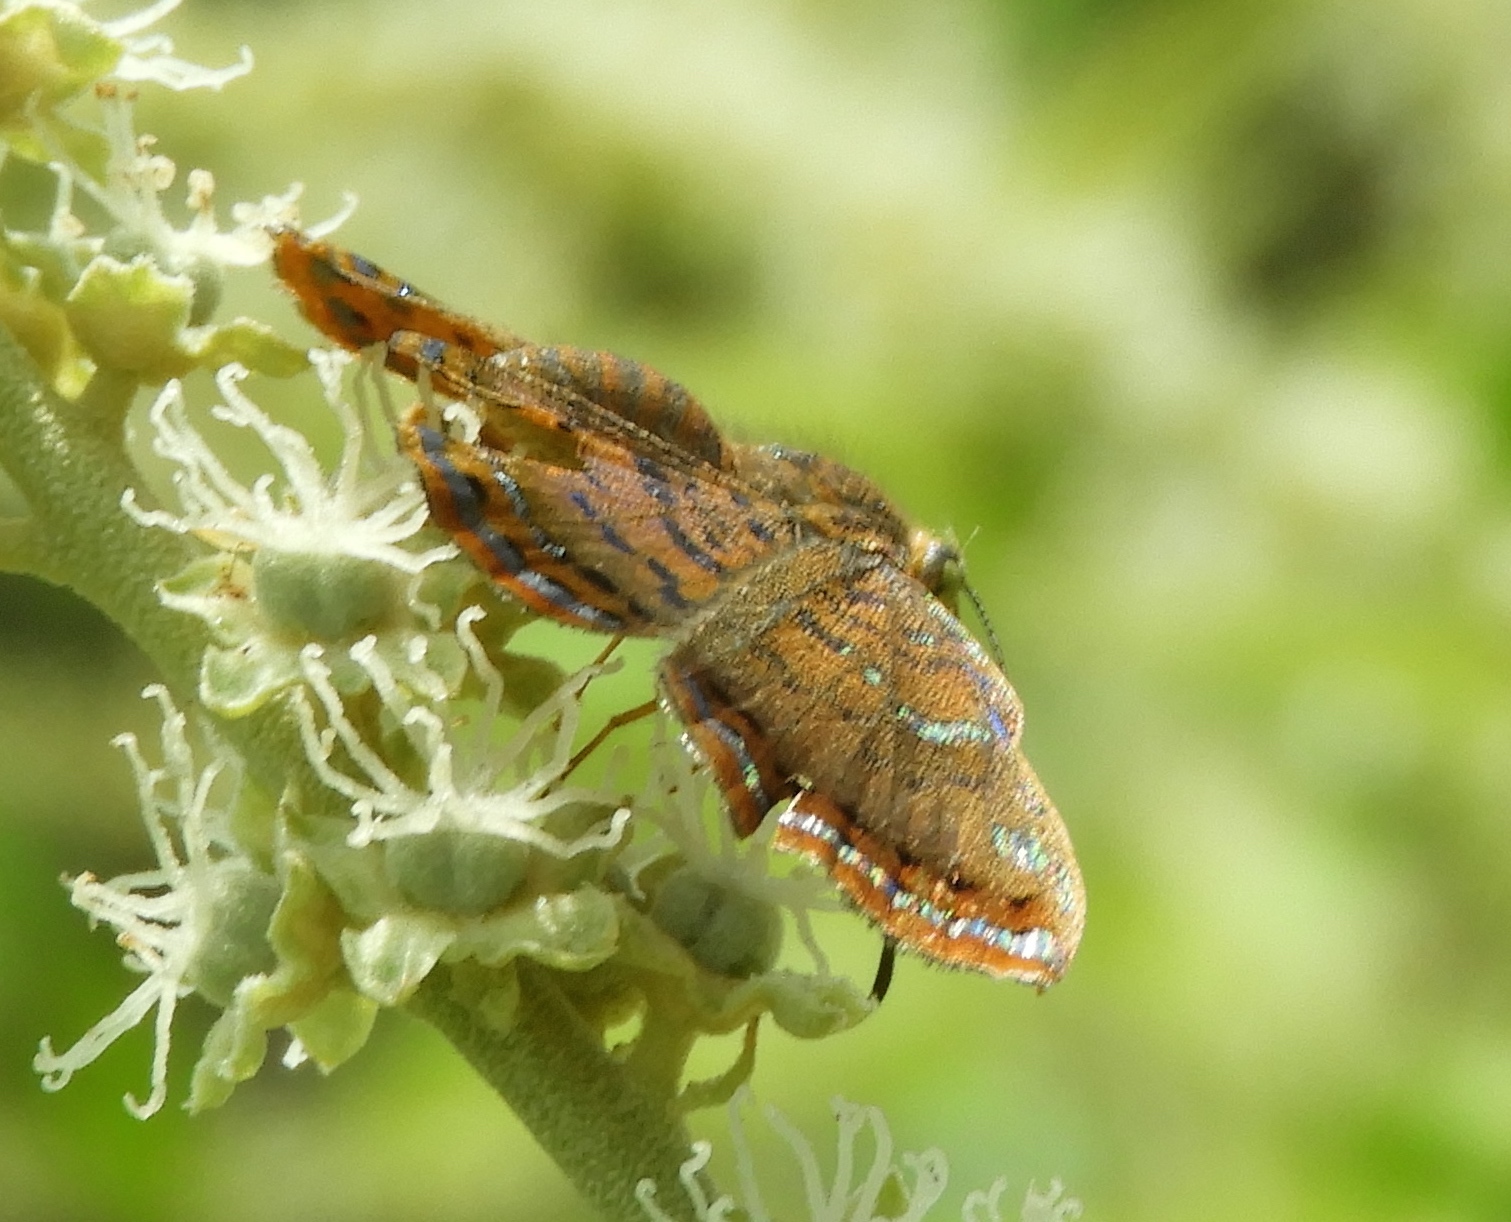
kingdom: Animalia
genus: Caria
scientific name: Caria ino
